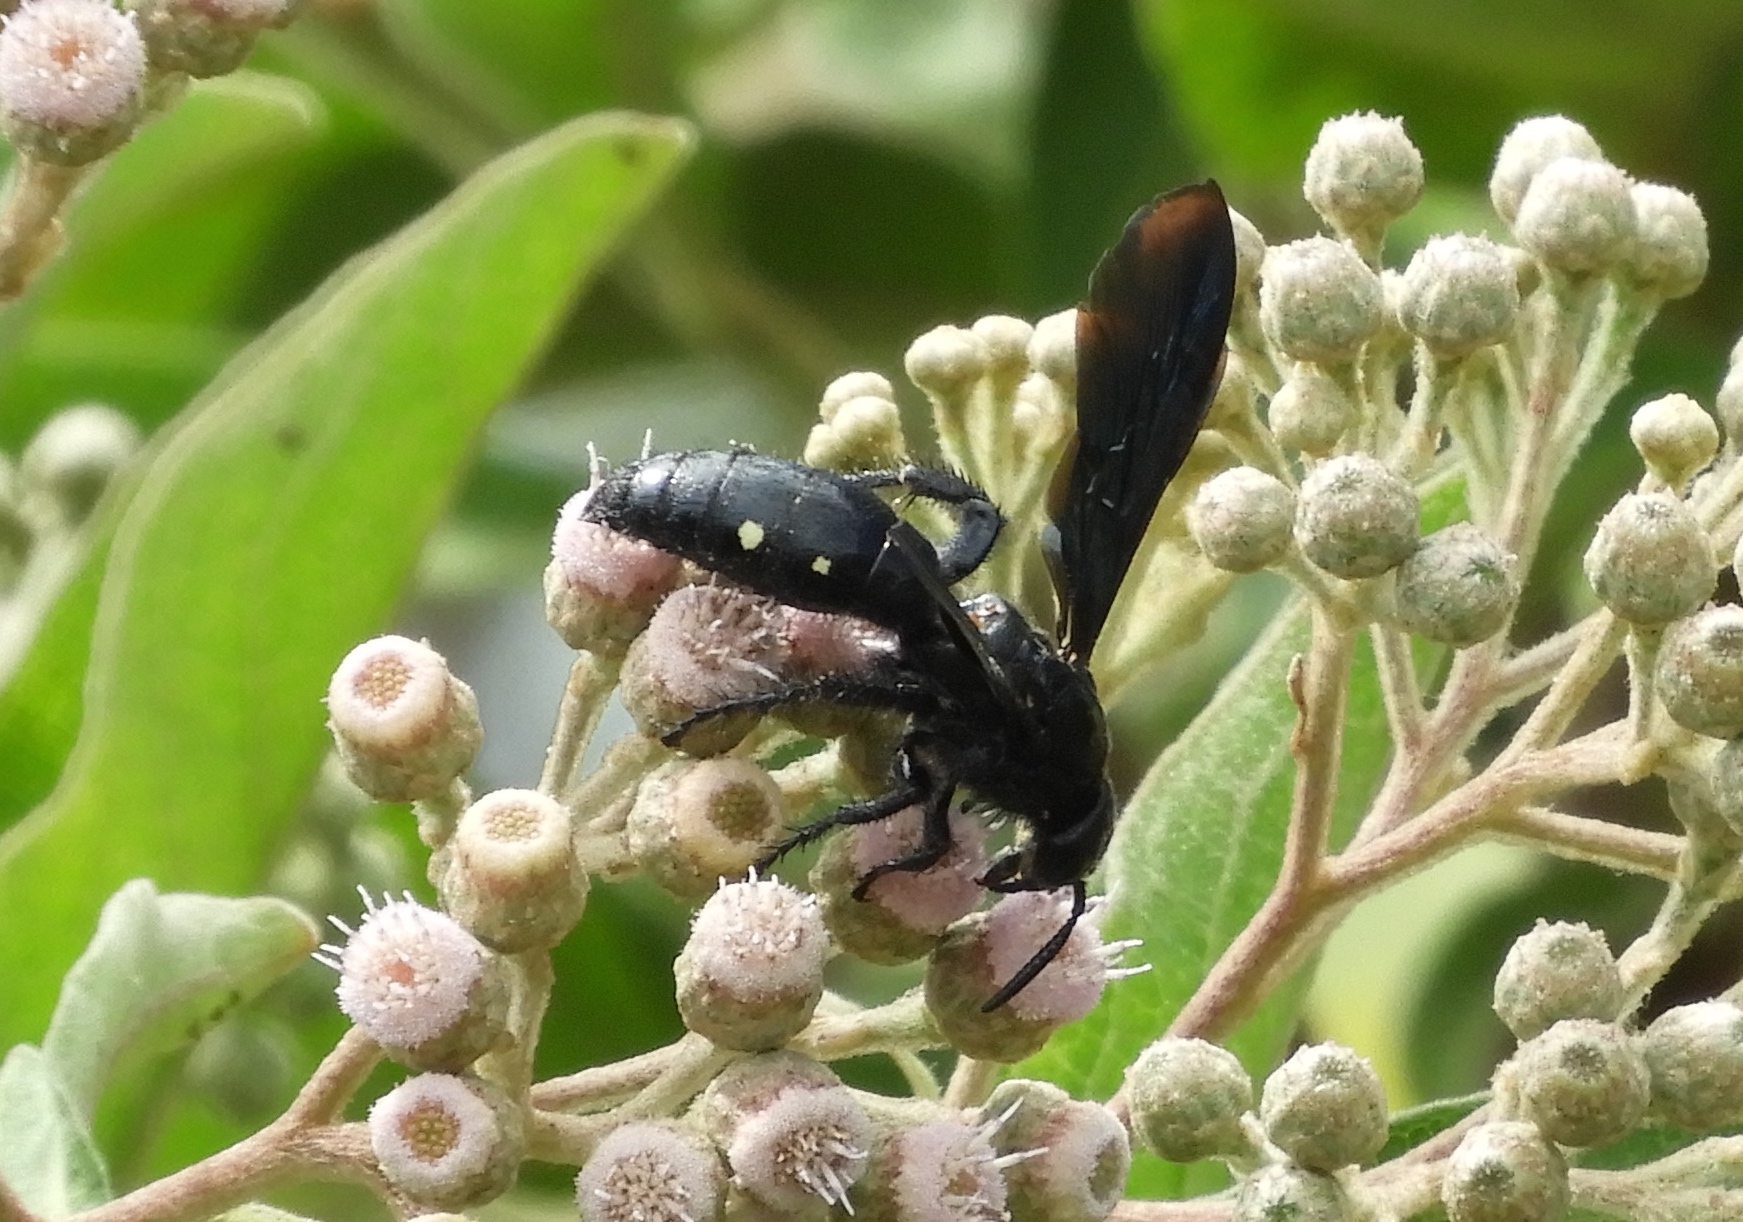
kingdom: Animalia
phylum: Arthropoda
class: Insecta
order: Hymenoptera
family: Scoliidae
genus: Scolia
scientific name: Scolia
